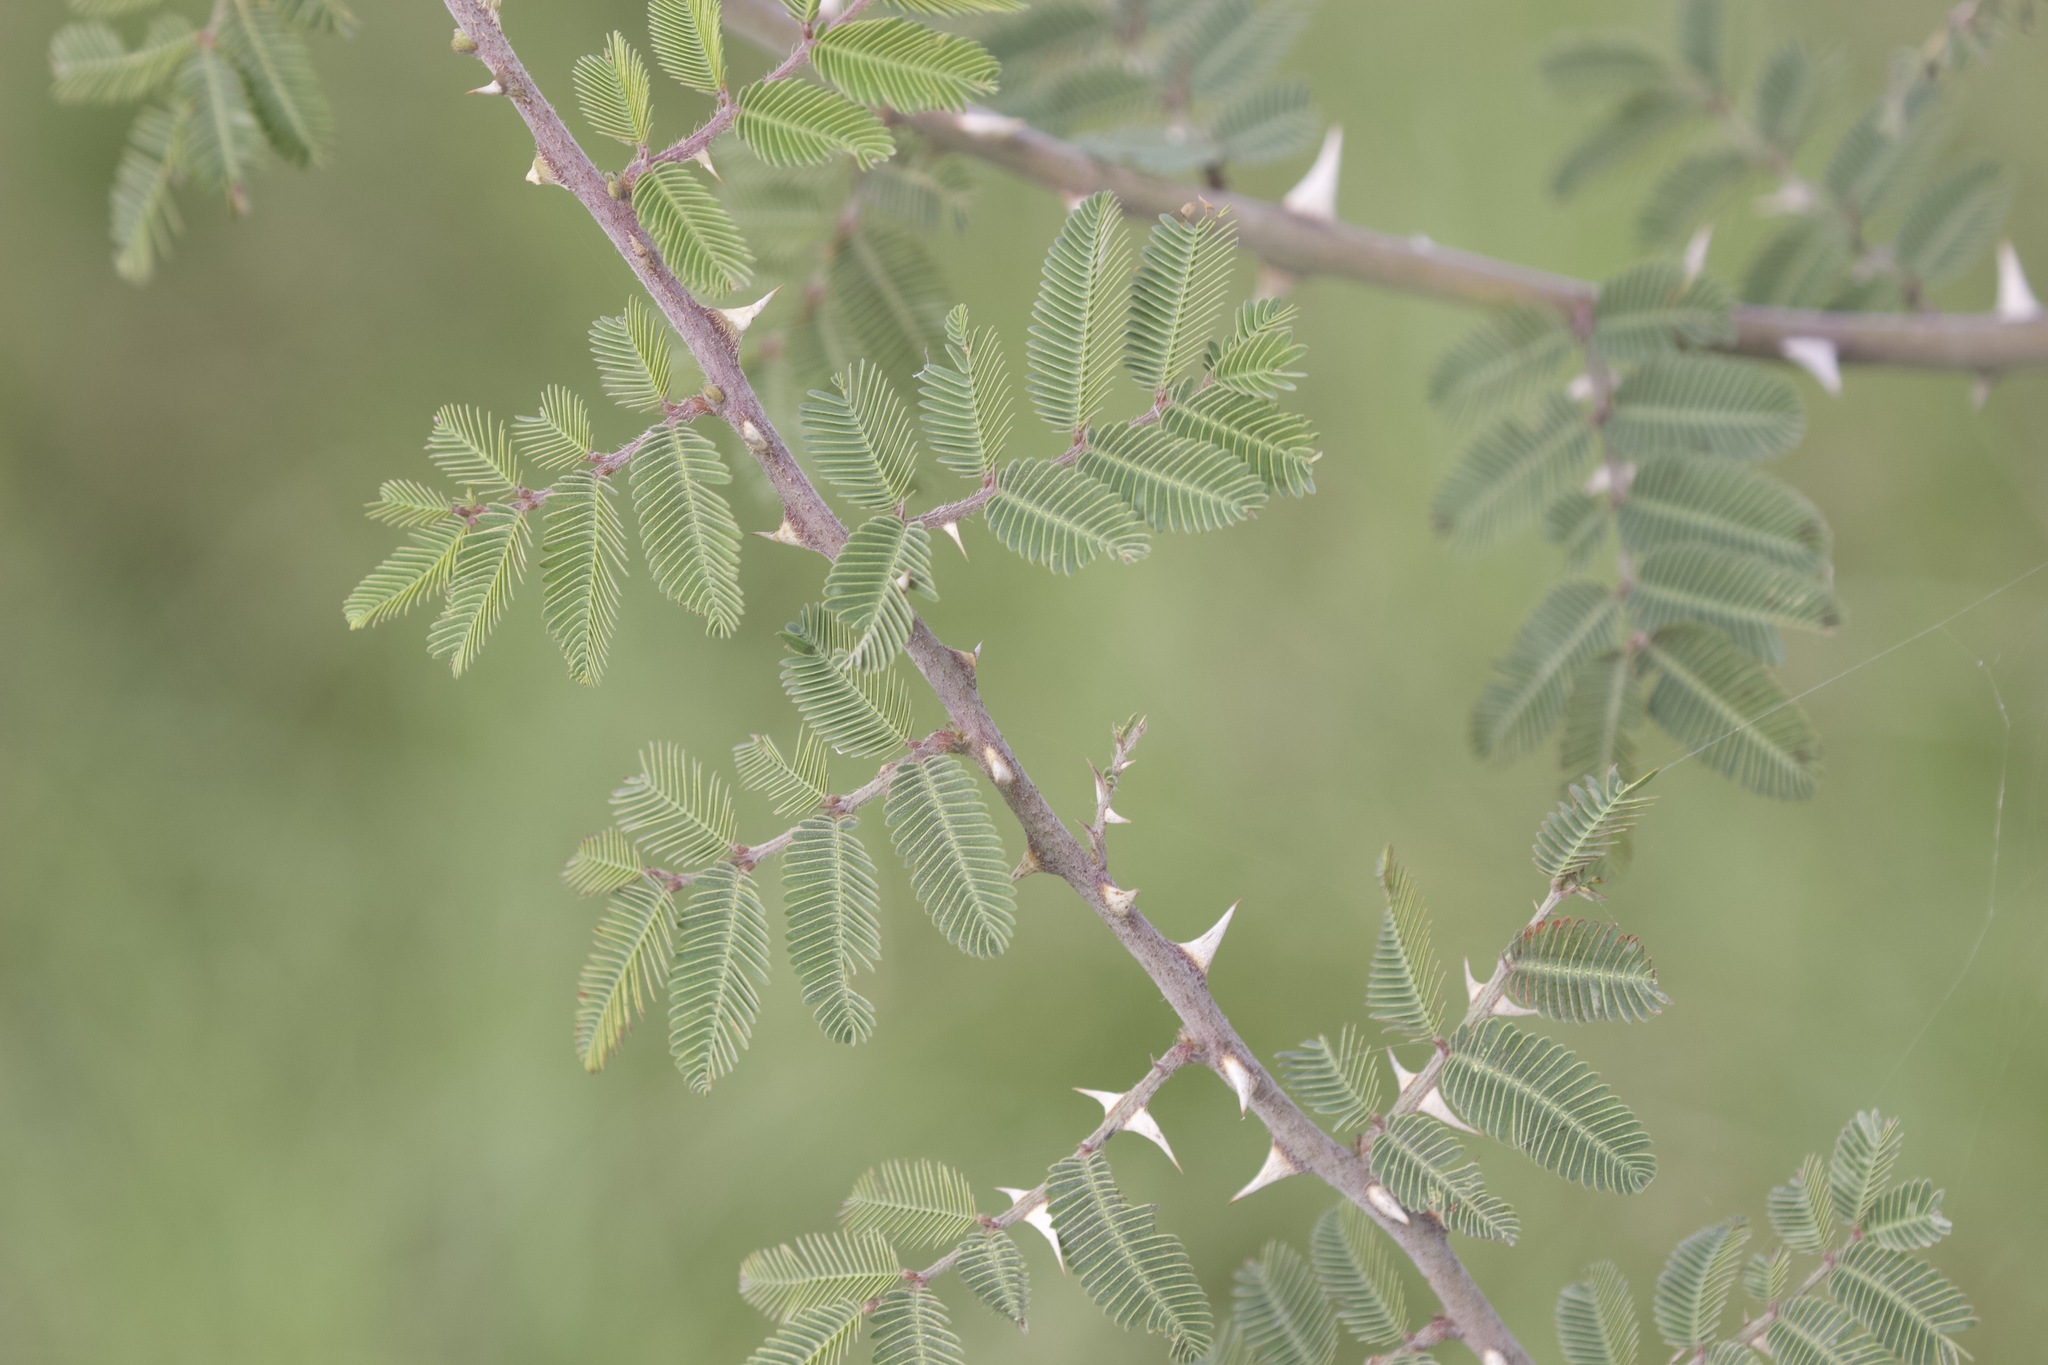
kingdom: Plantae
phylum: Tracheophyta
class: Magnoliopsida
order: Fabales
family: Fabaceae
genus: Mimosa
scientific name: Mimosa pigra
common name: Black mimosa
